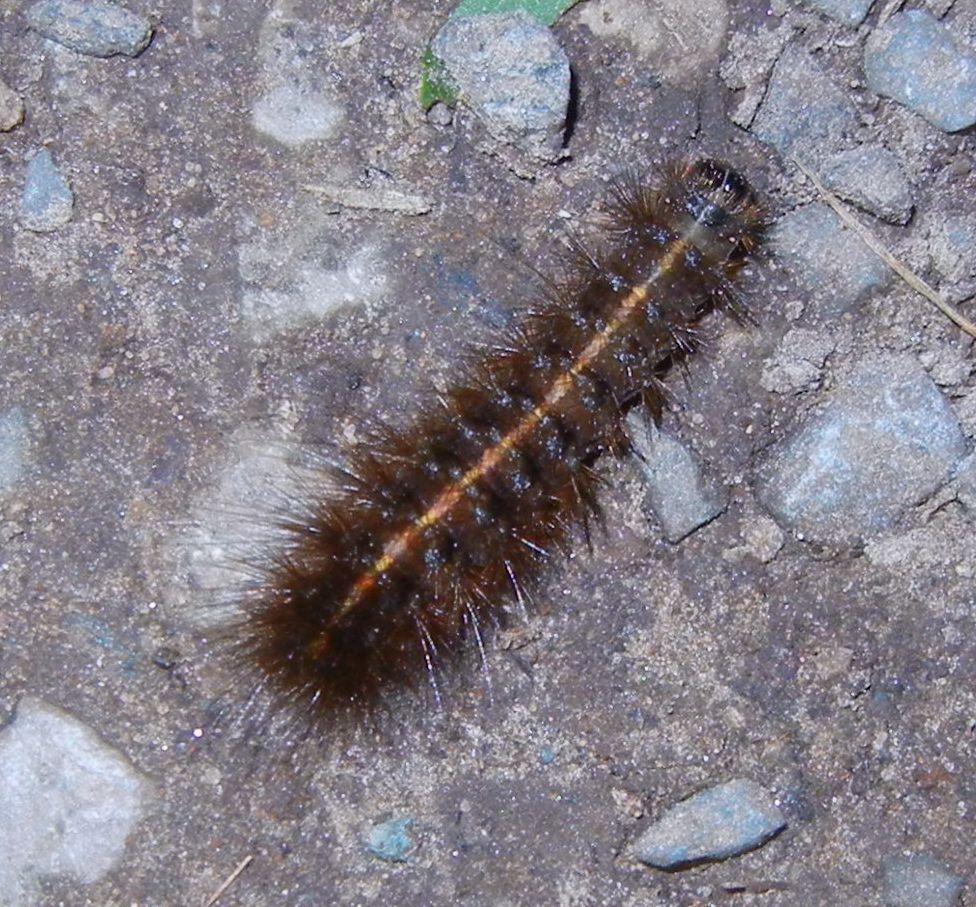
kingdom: Animalia
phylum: Arthropoda
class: Insecta
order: Lepidoptera
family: Erebidae
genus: Spilosoma
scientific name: Spilosoma lubricipeda
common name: White ermine
